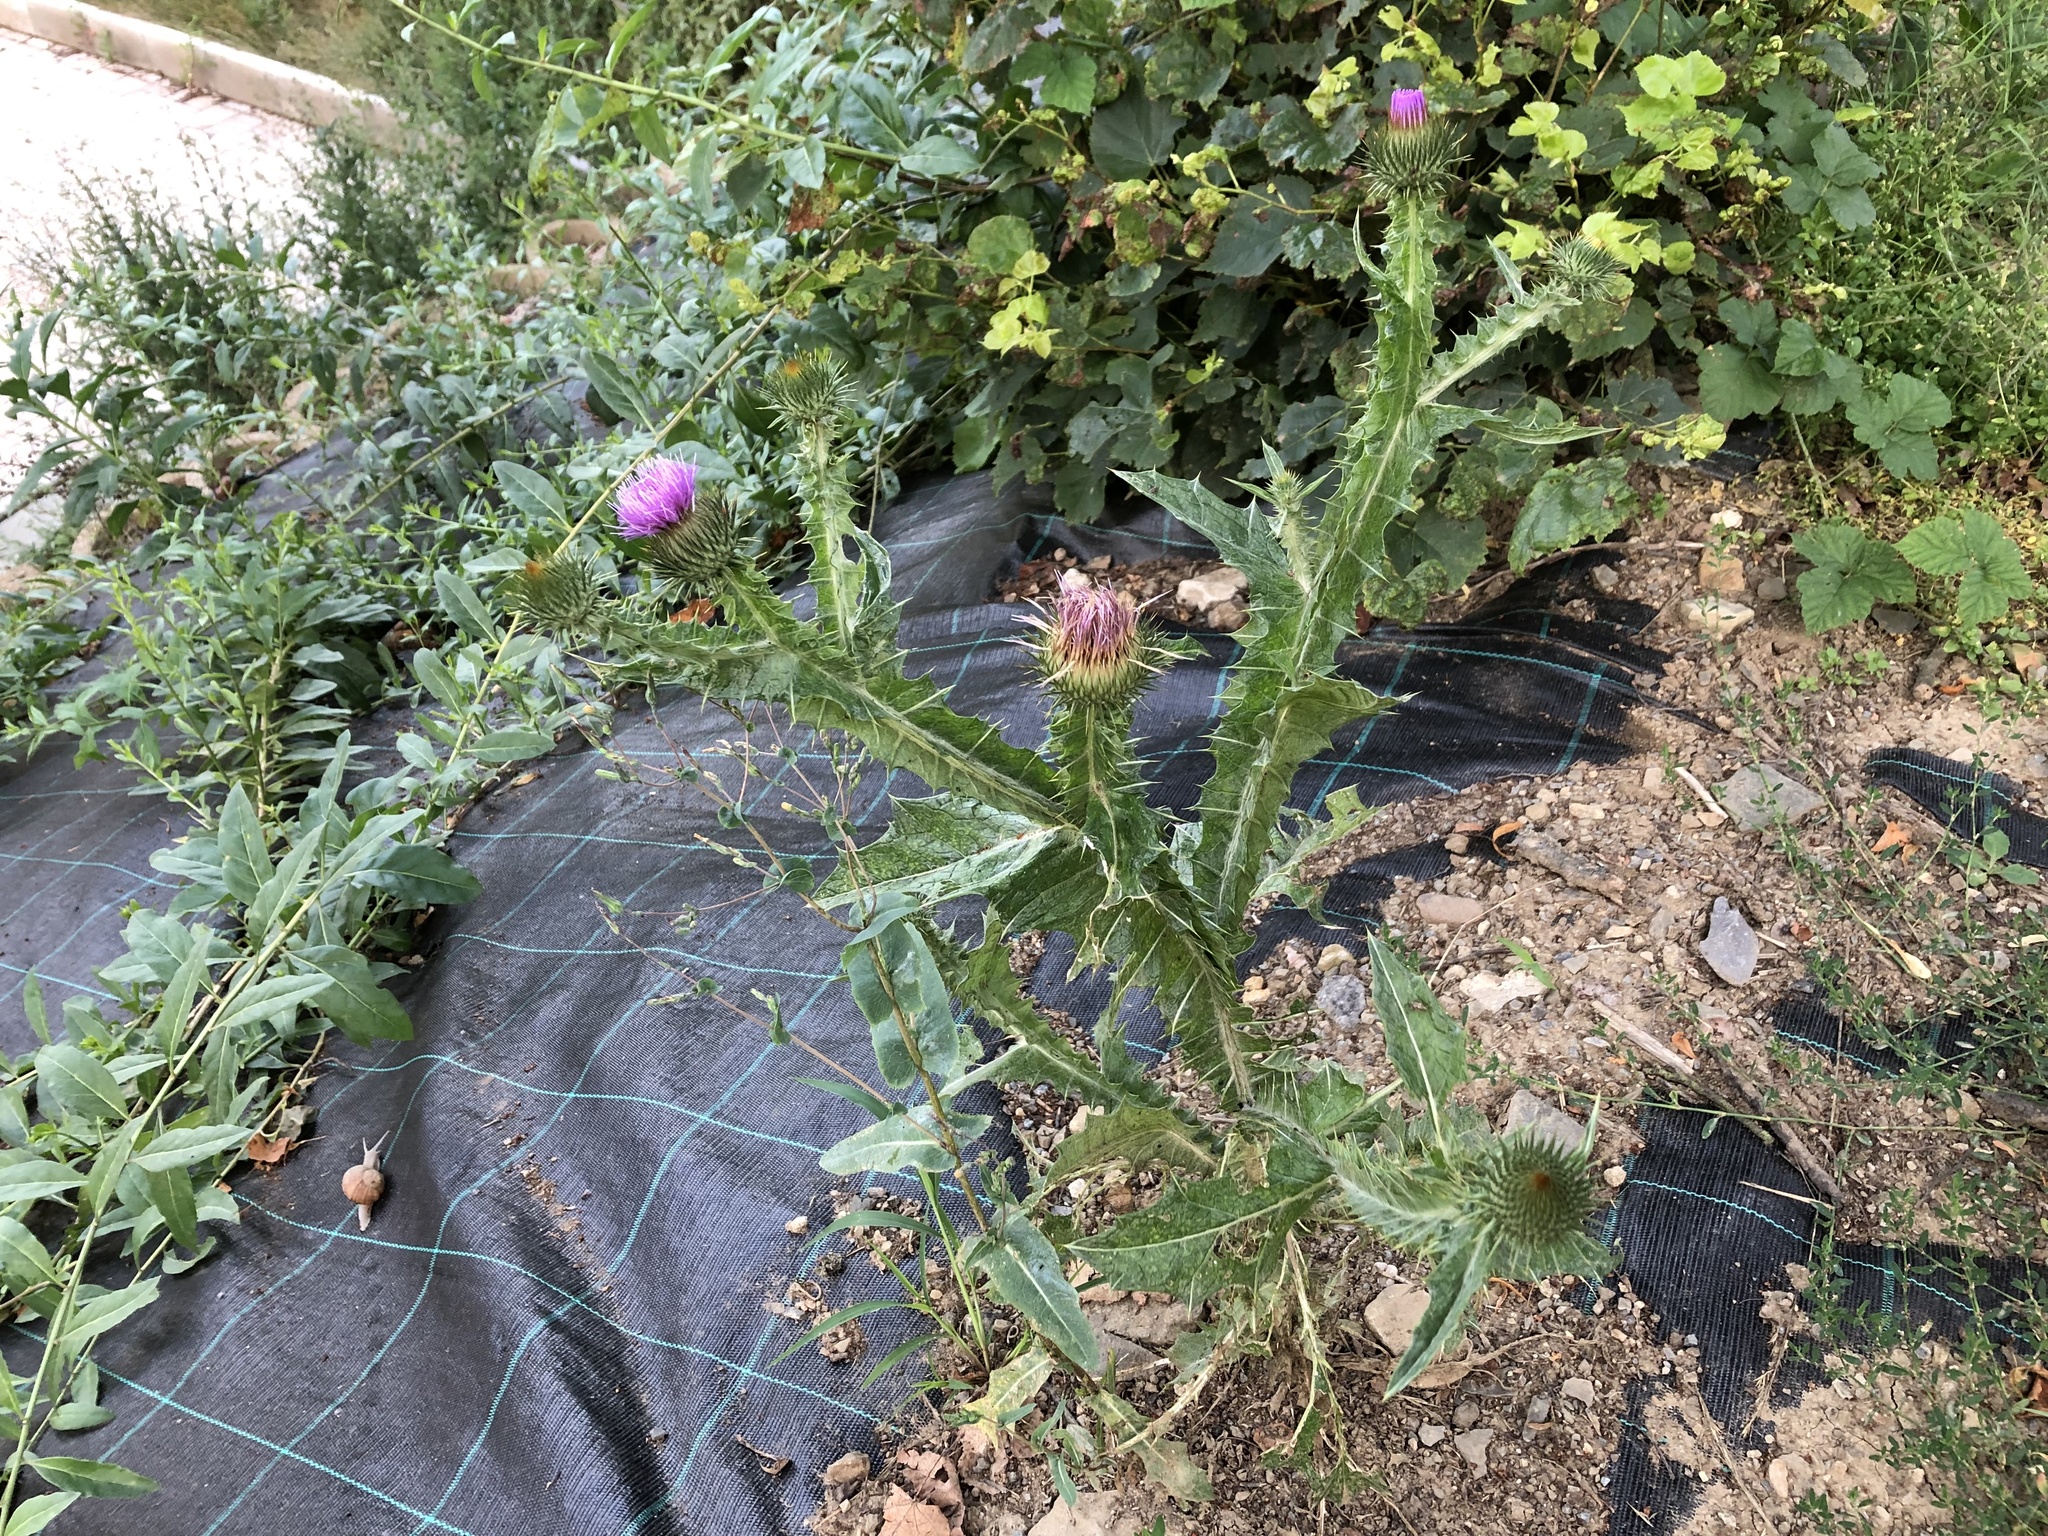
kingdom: Plantae
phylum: Tracheophyta
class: Magnoliopsida
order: Asterales
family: Asteraceae
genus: Onopordum
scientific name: Onopordum acanthium
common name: Scotch thistle
